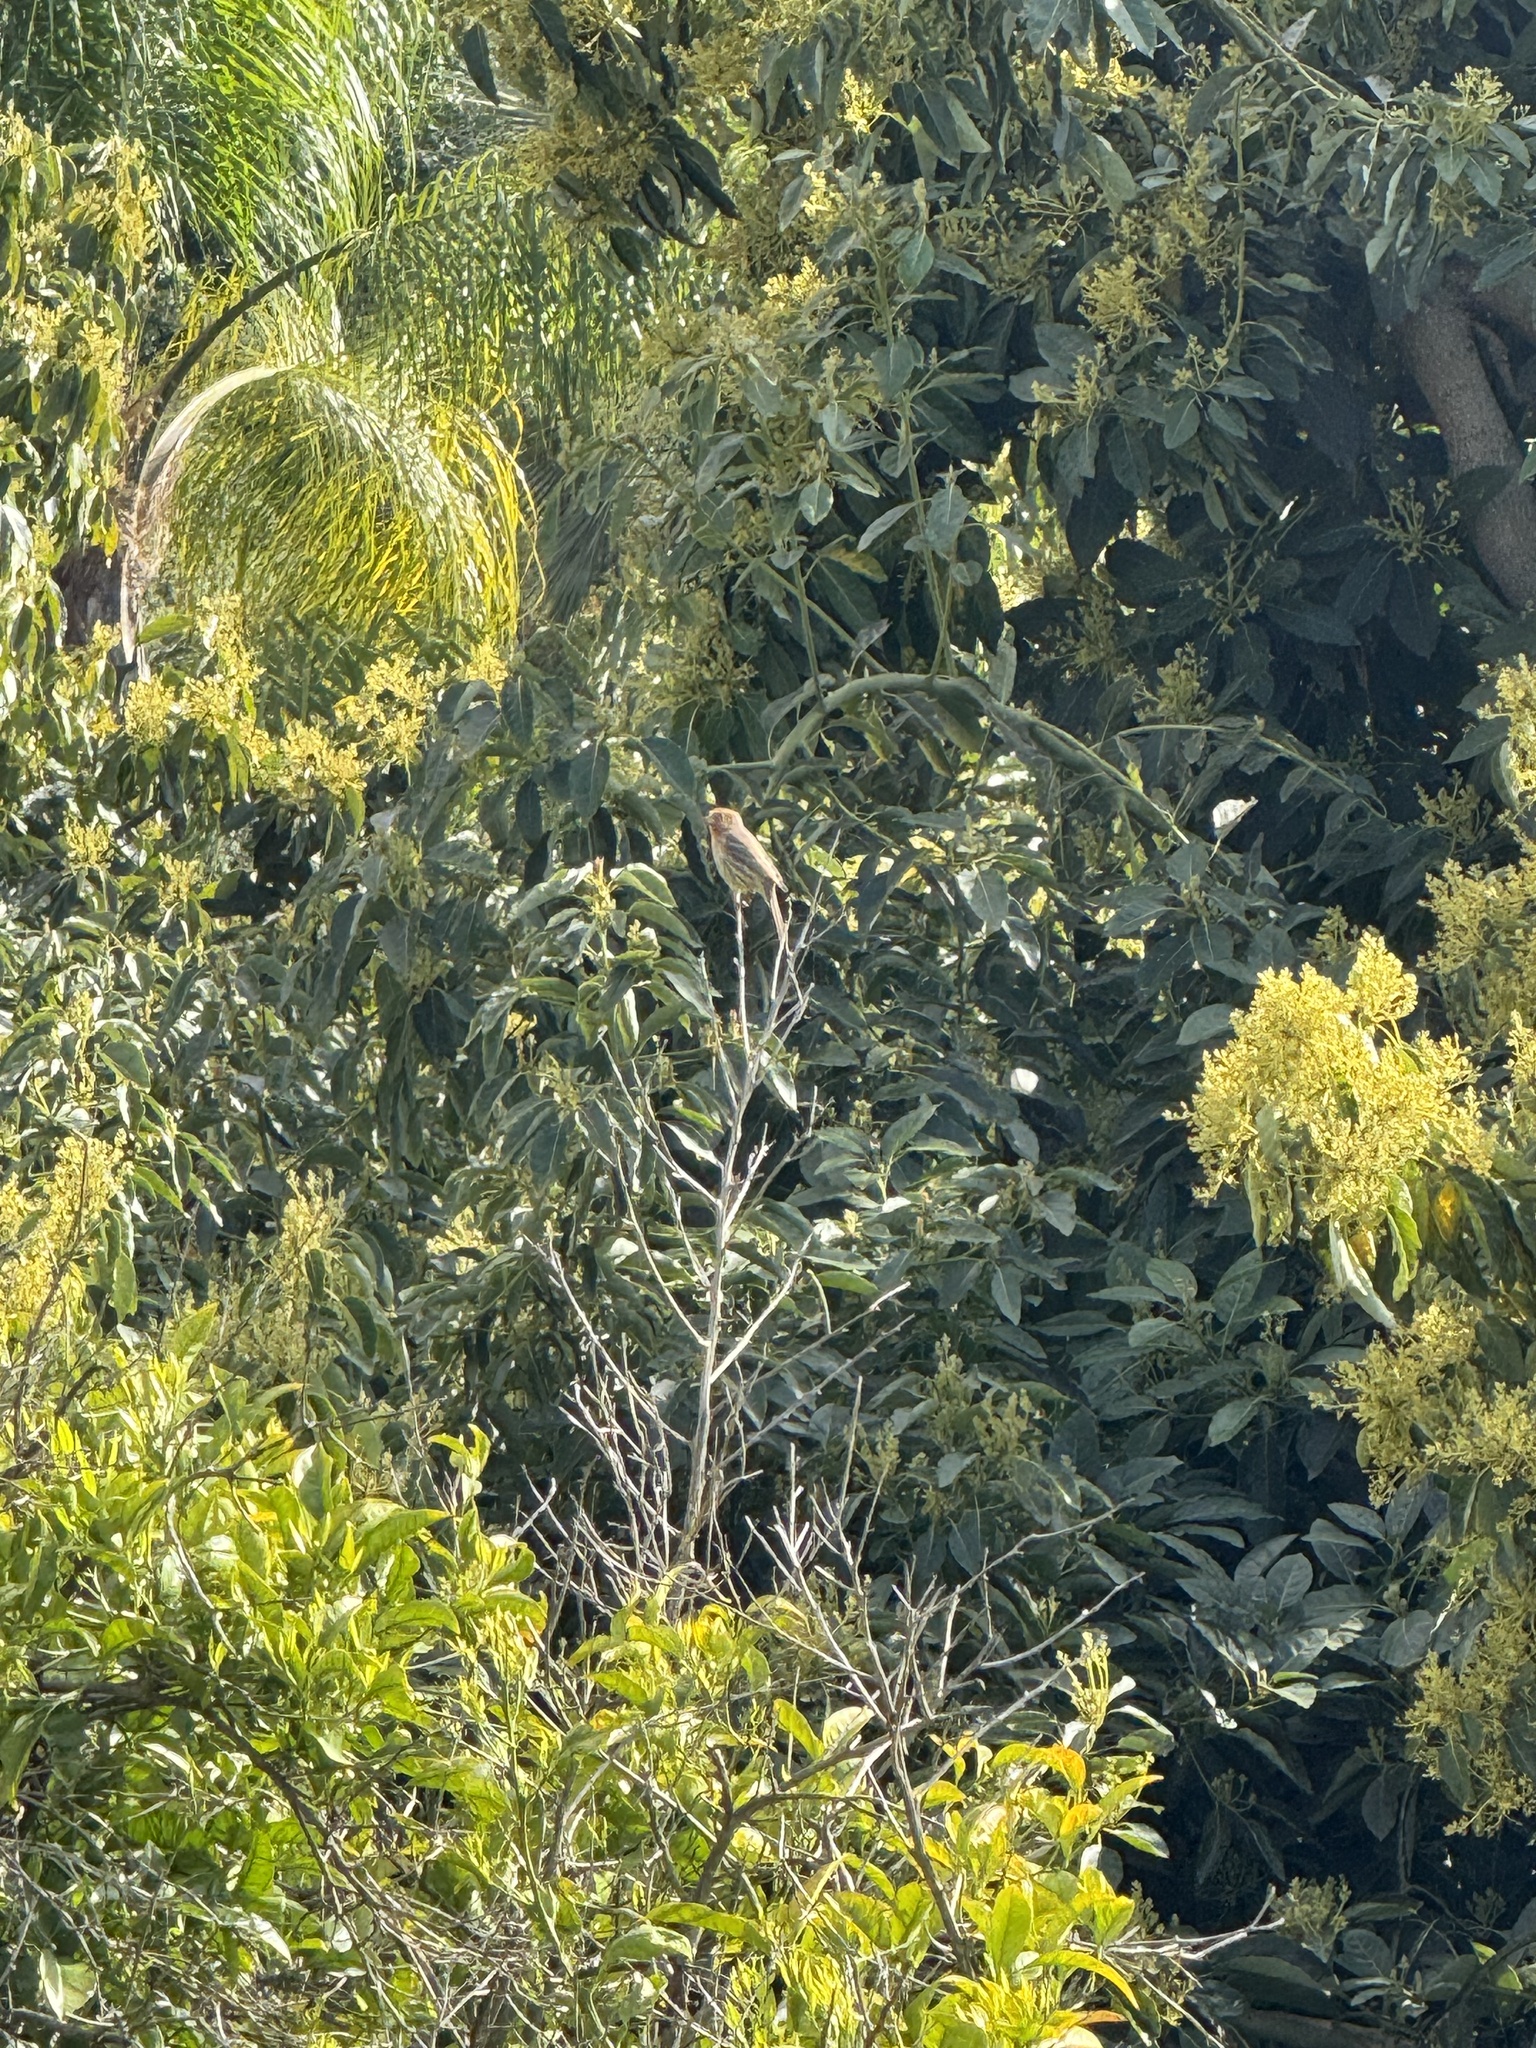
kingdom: Animalia
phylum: Chordata
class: Aves
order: Passeriformes
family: Fringillidae
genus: Haemorhous
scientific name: Haemorhous mexicanus
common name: House finch
